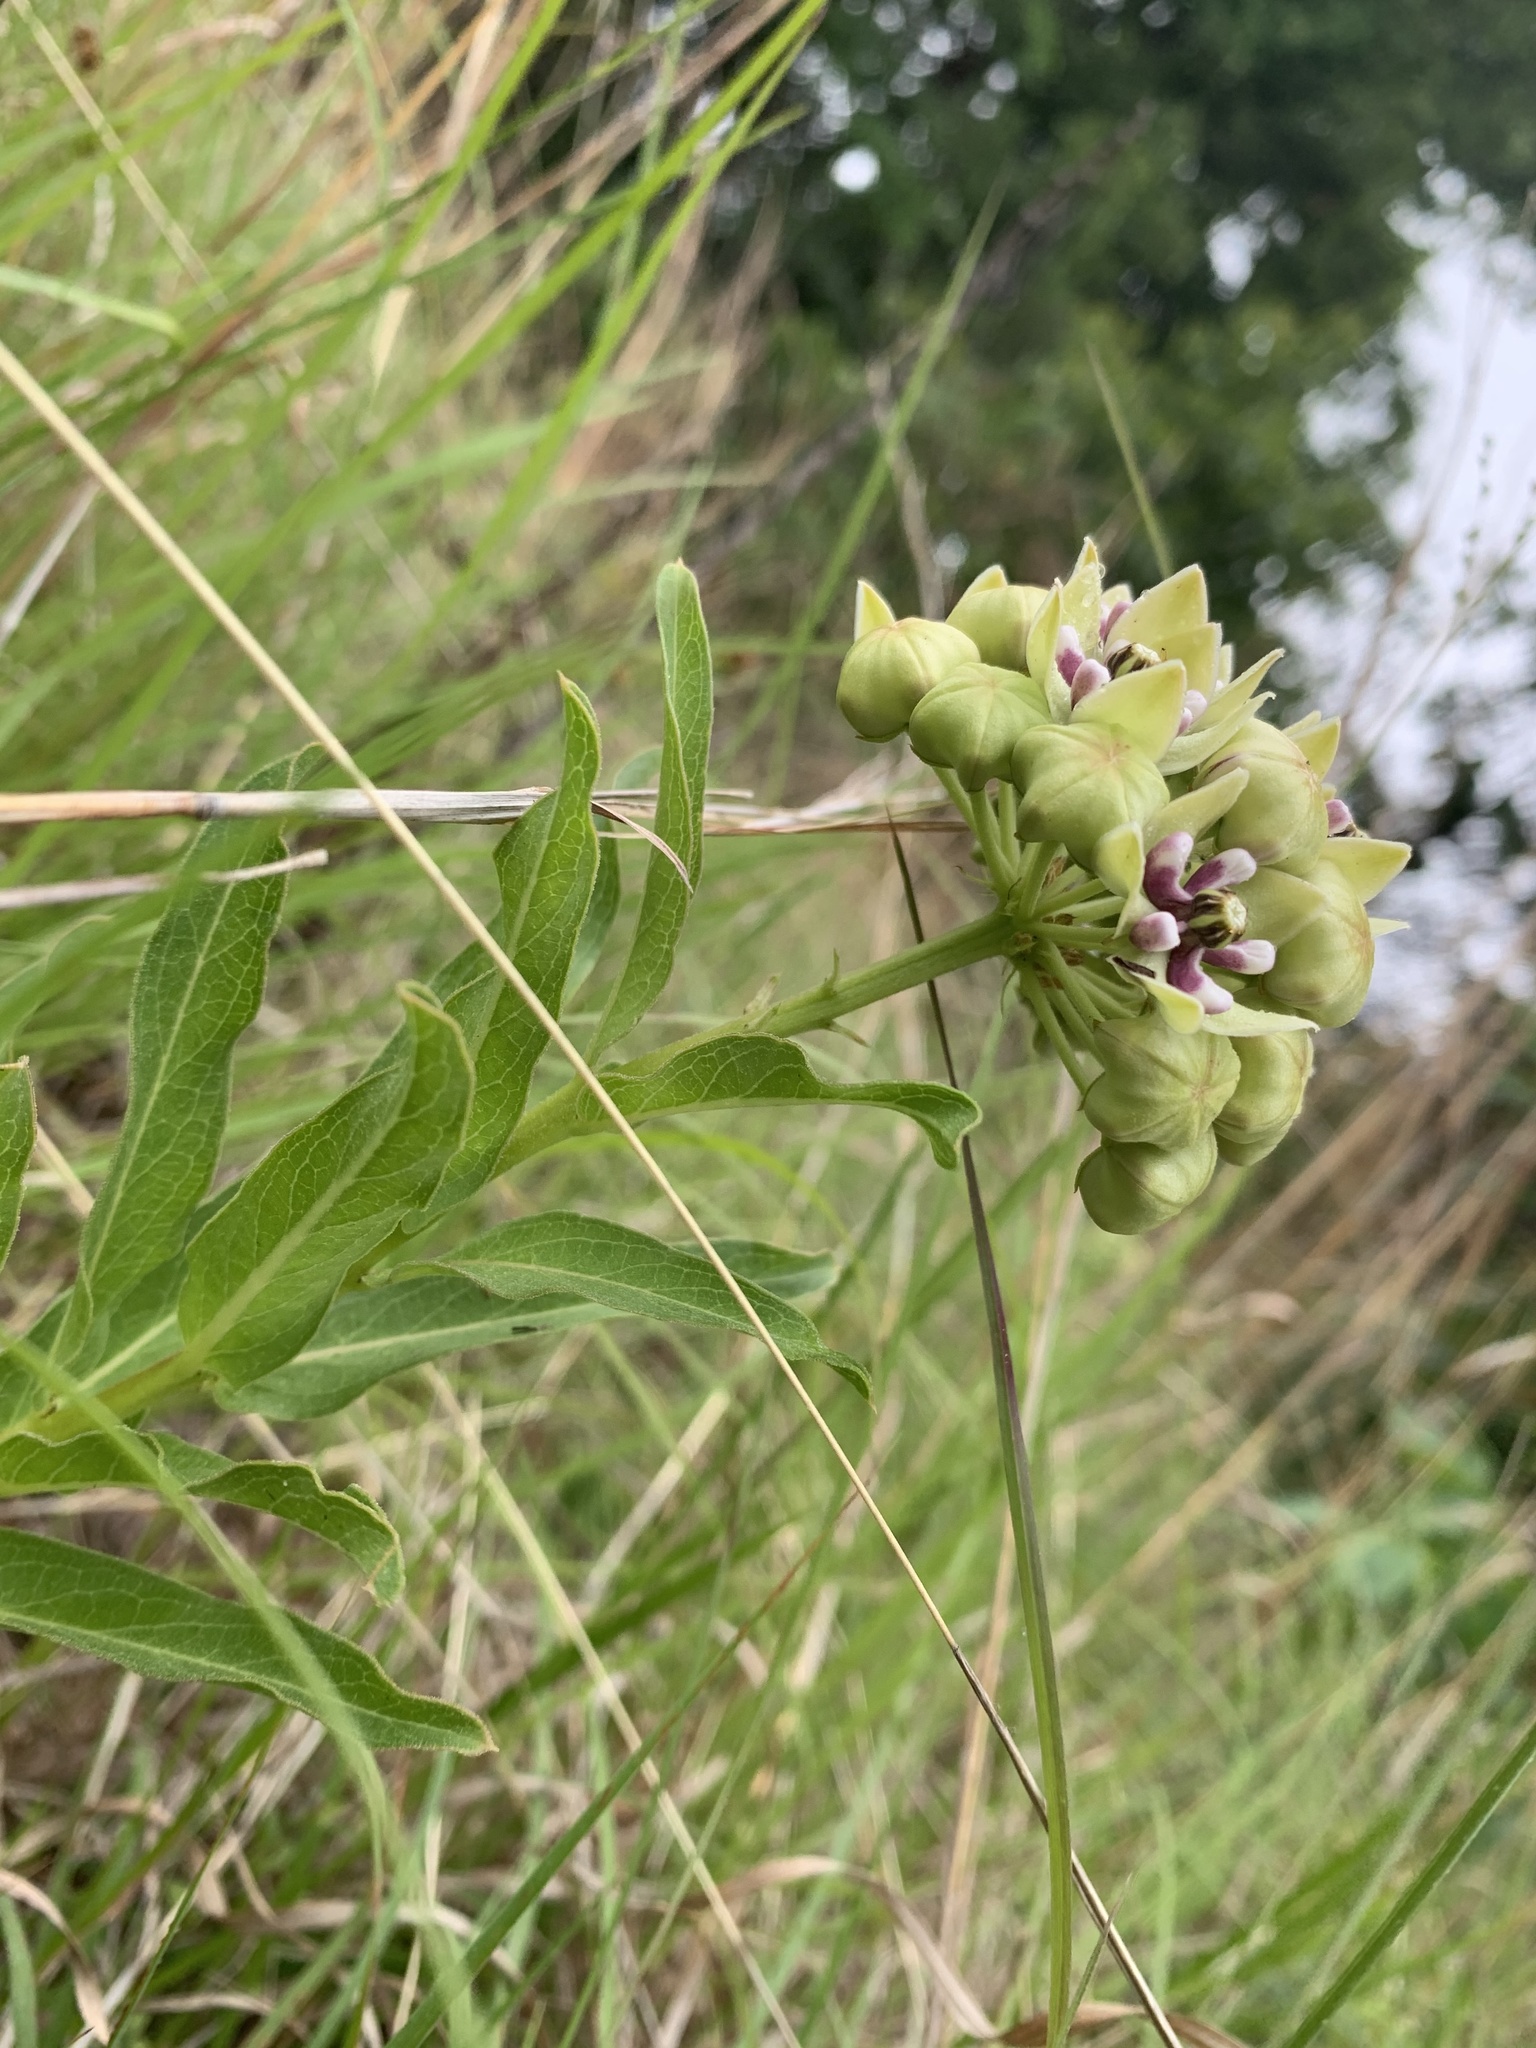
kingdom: Plantae
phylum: Tracheophyta
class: Magnoliopsida
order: Gentianales
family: Apocynaceae
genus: Asclepias
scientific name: Asclepias viridis
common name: Antelope-horns
